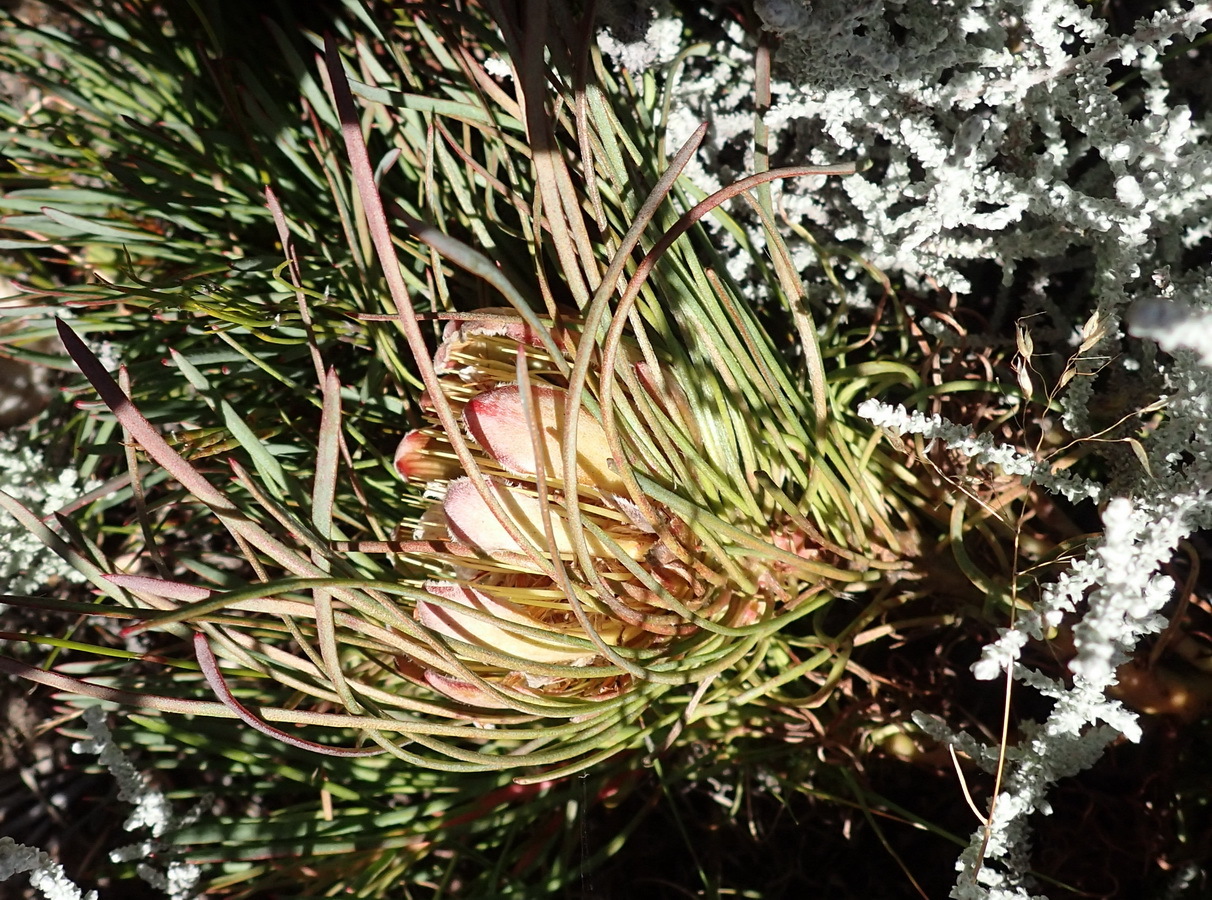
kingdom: Plantae
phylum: Tracheophyta
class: Magnoliopsida
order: Proteales
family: Proteaceae
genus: Protea
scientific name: Protea montana
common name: Swartberg sugarbush
